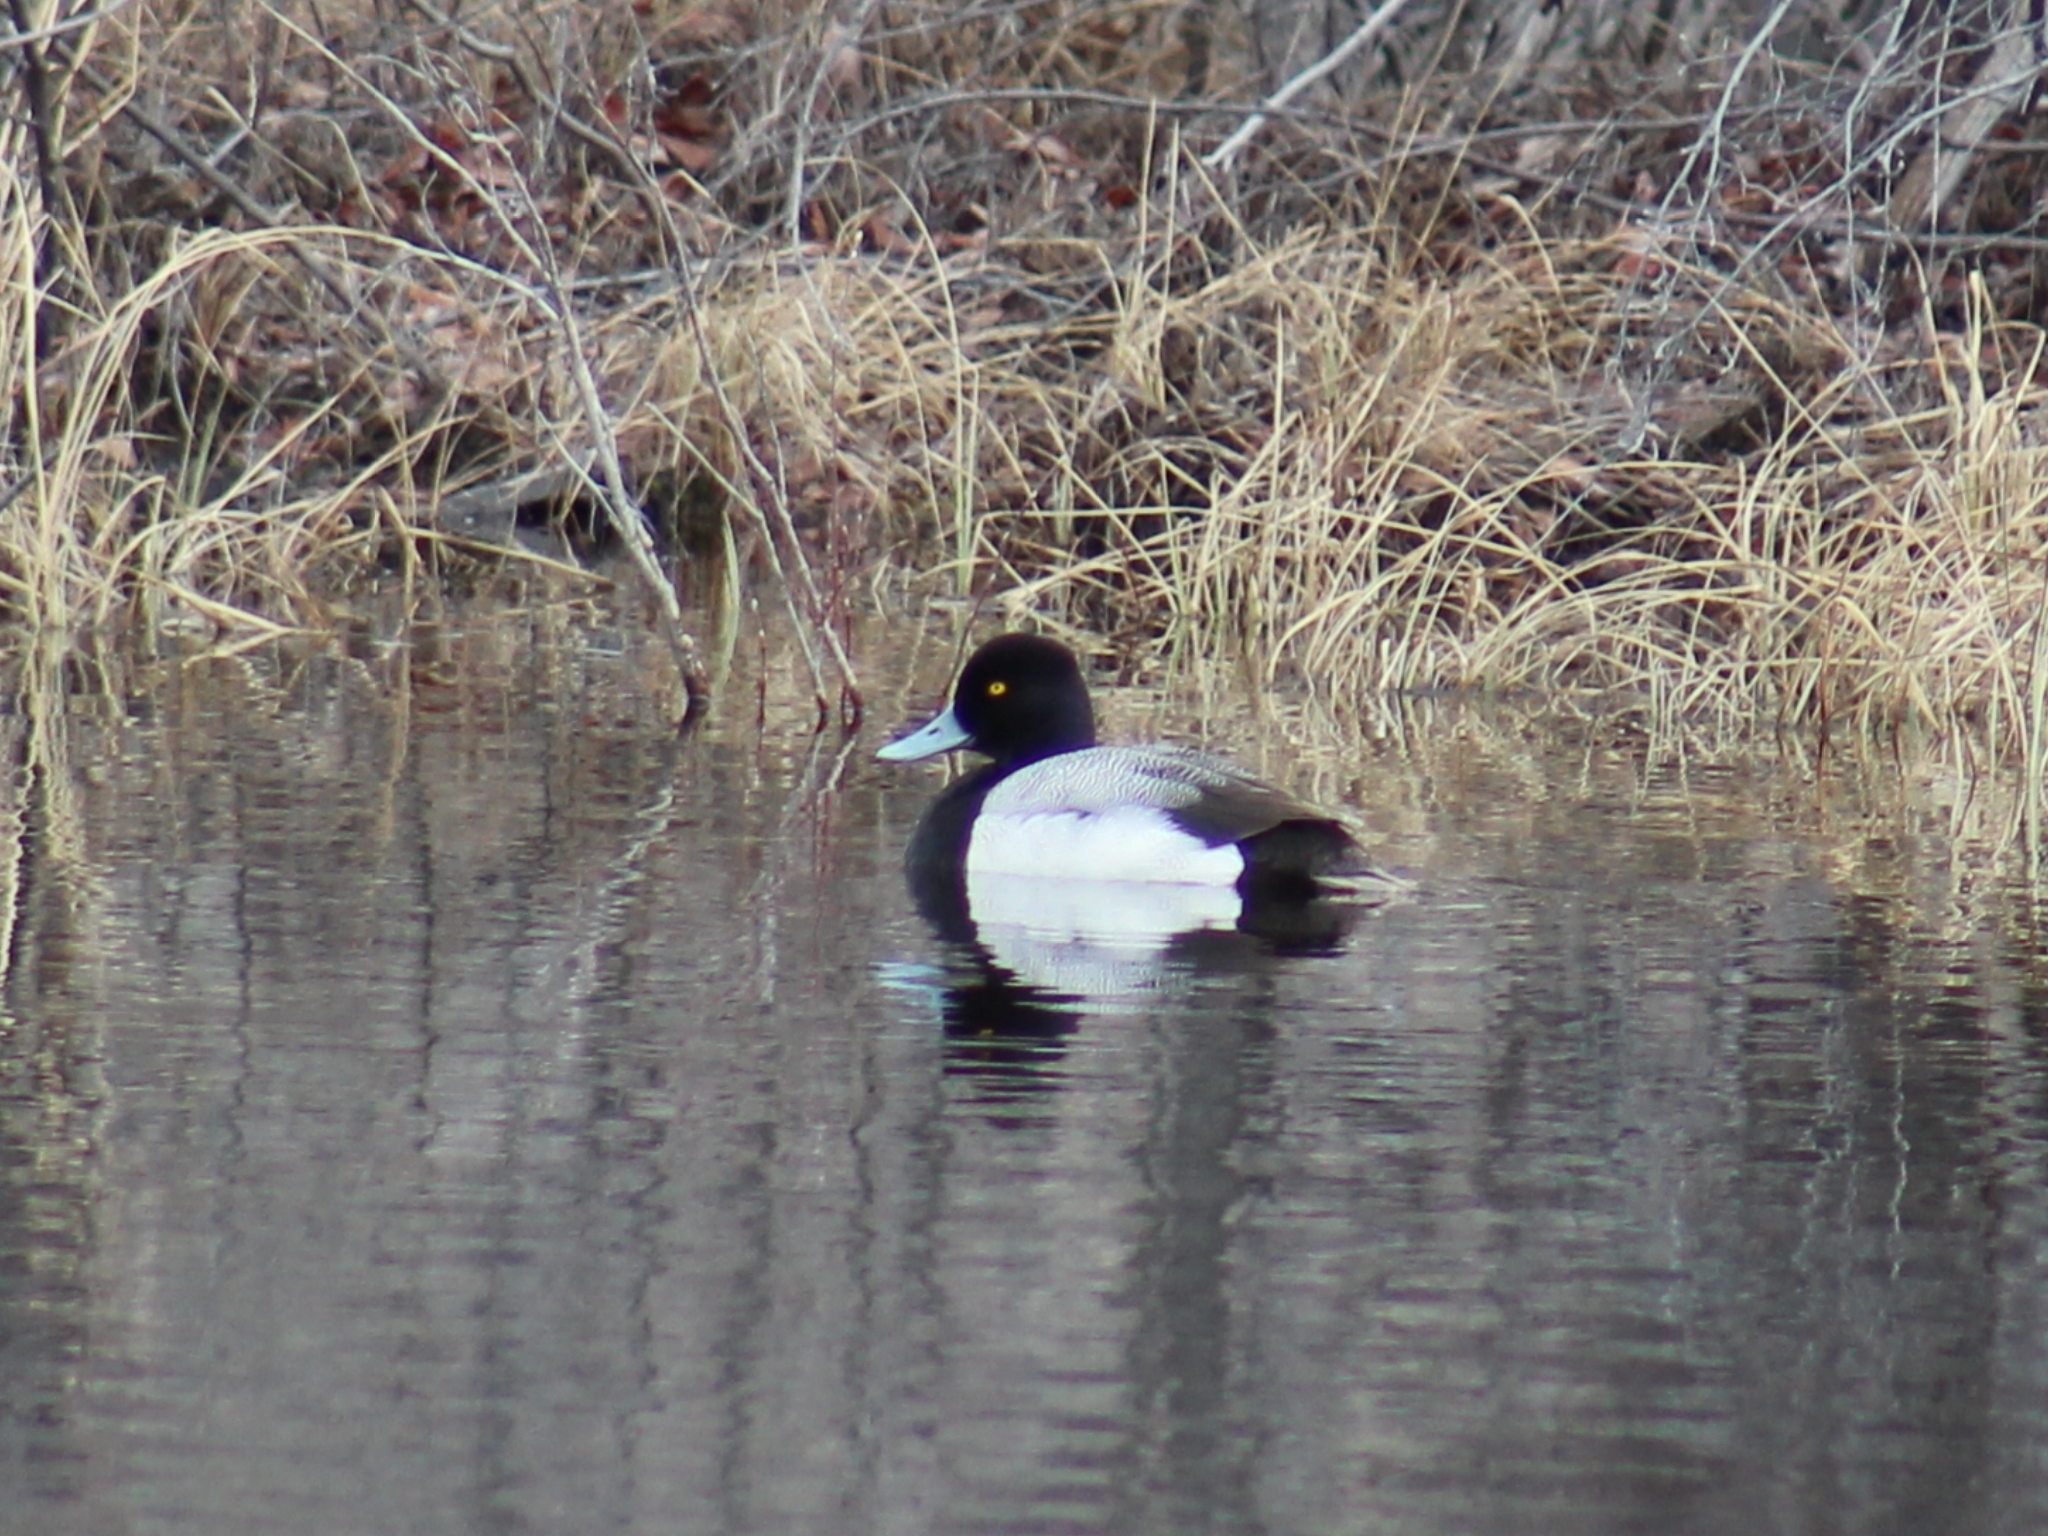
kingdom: Animalia
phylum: Chordata
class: Aves
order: Anseriformes
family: Anatidae
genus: Aythya
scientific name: Aythya affinis
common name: Lesser scaup
